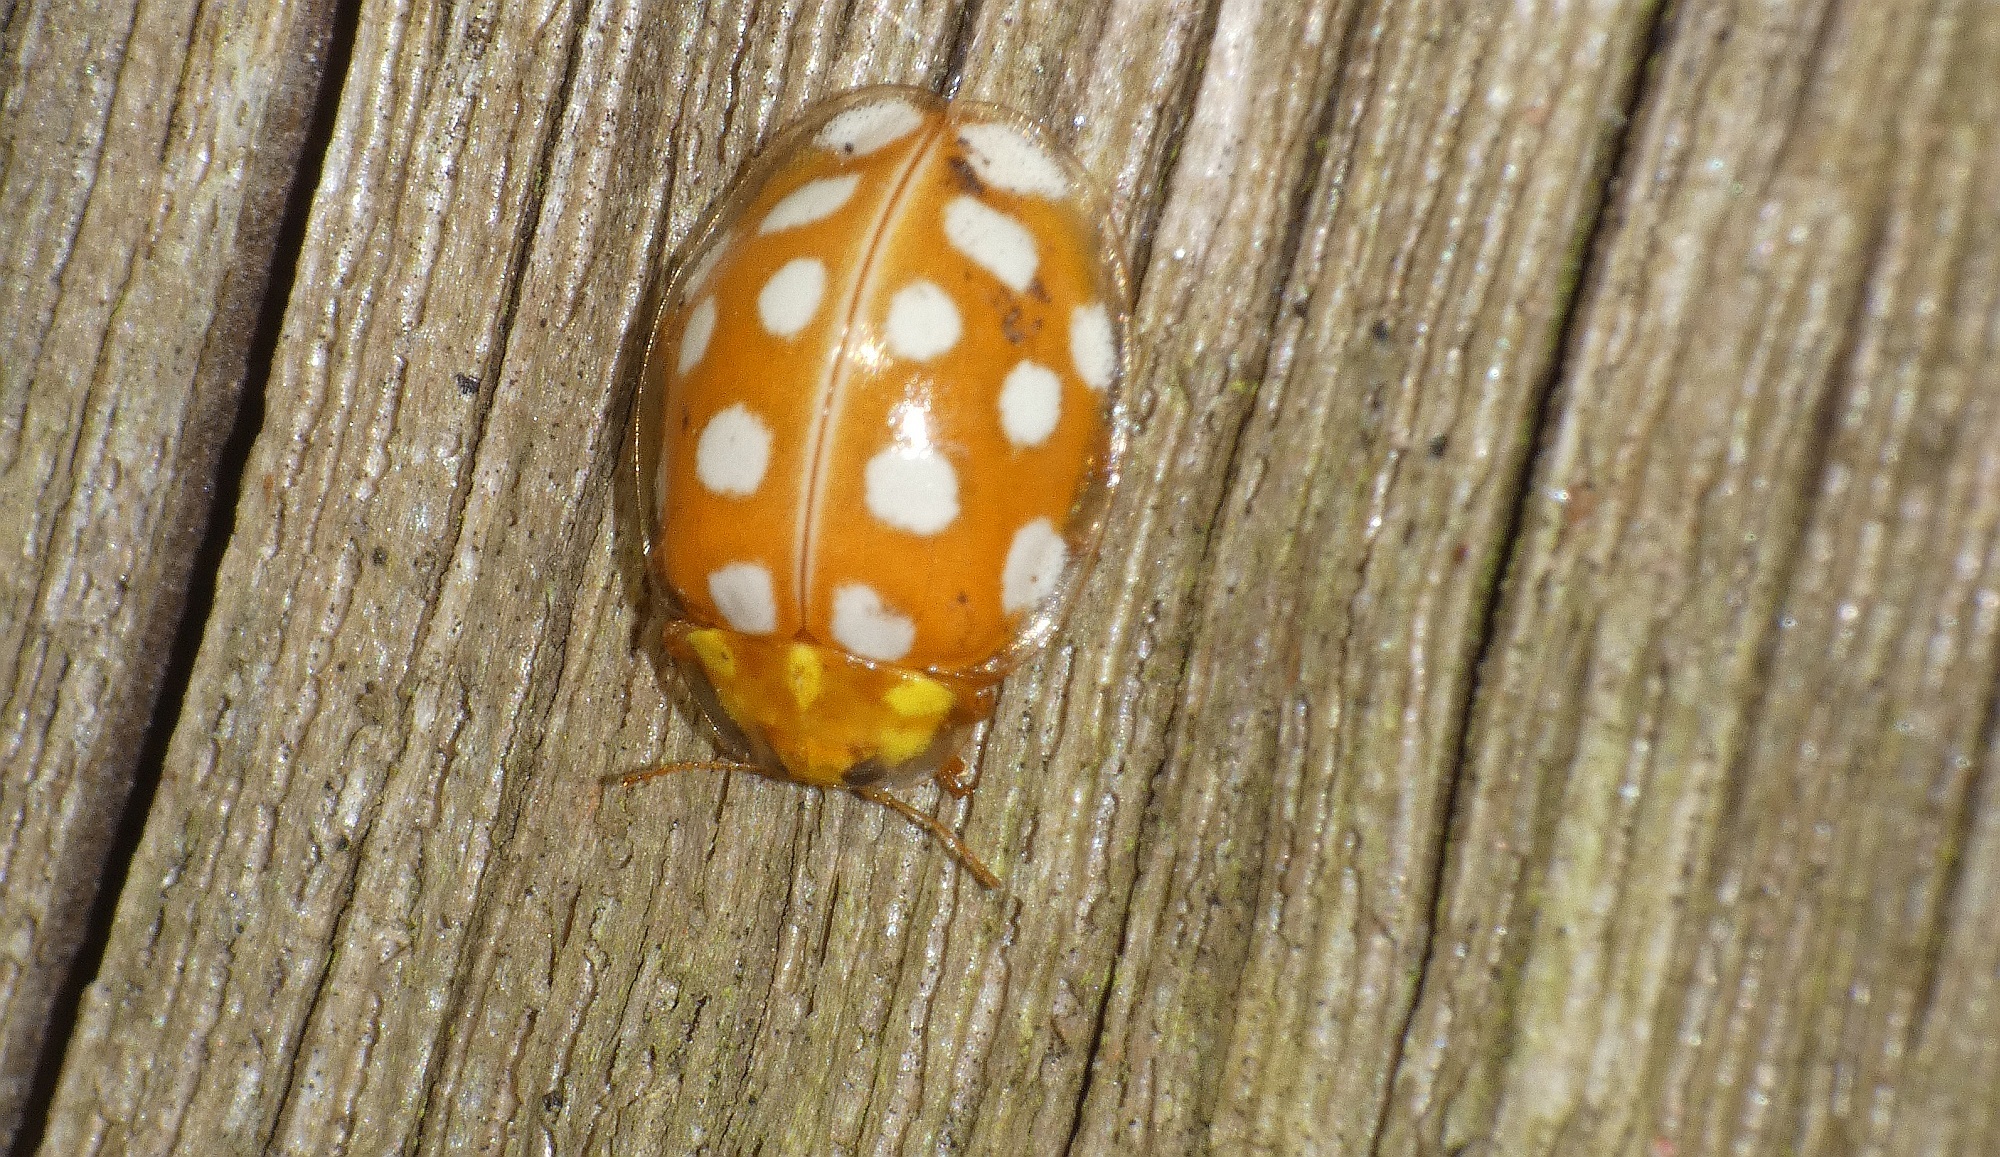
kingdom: Animalia
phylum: Arthropoda
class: Insecta
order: Coleoptera
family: Coccinellidae
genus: Halyzia
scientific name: Halyzia sedecimguttata
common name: Orange ladybird
